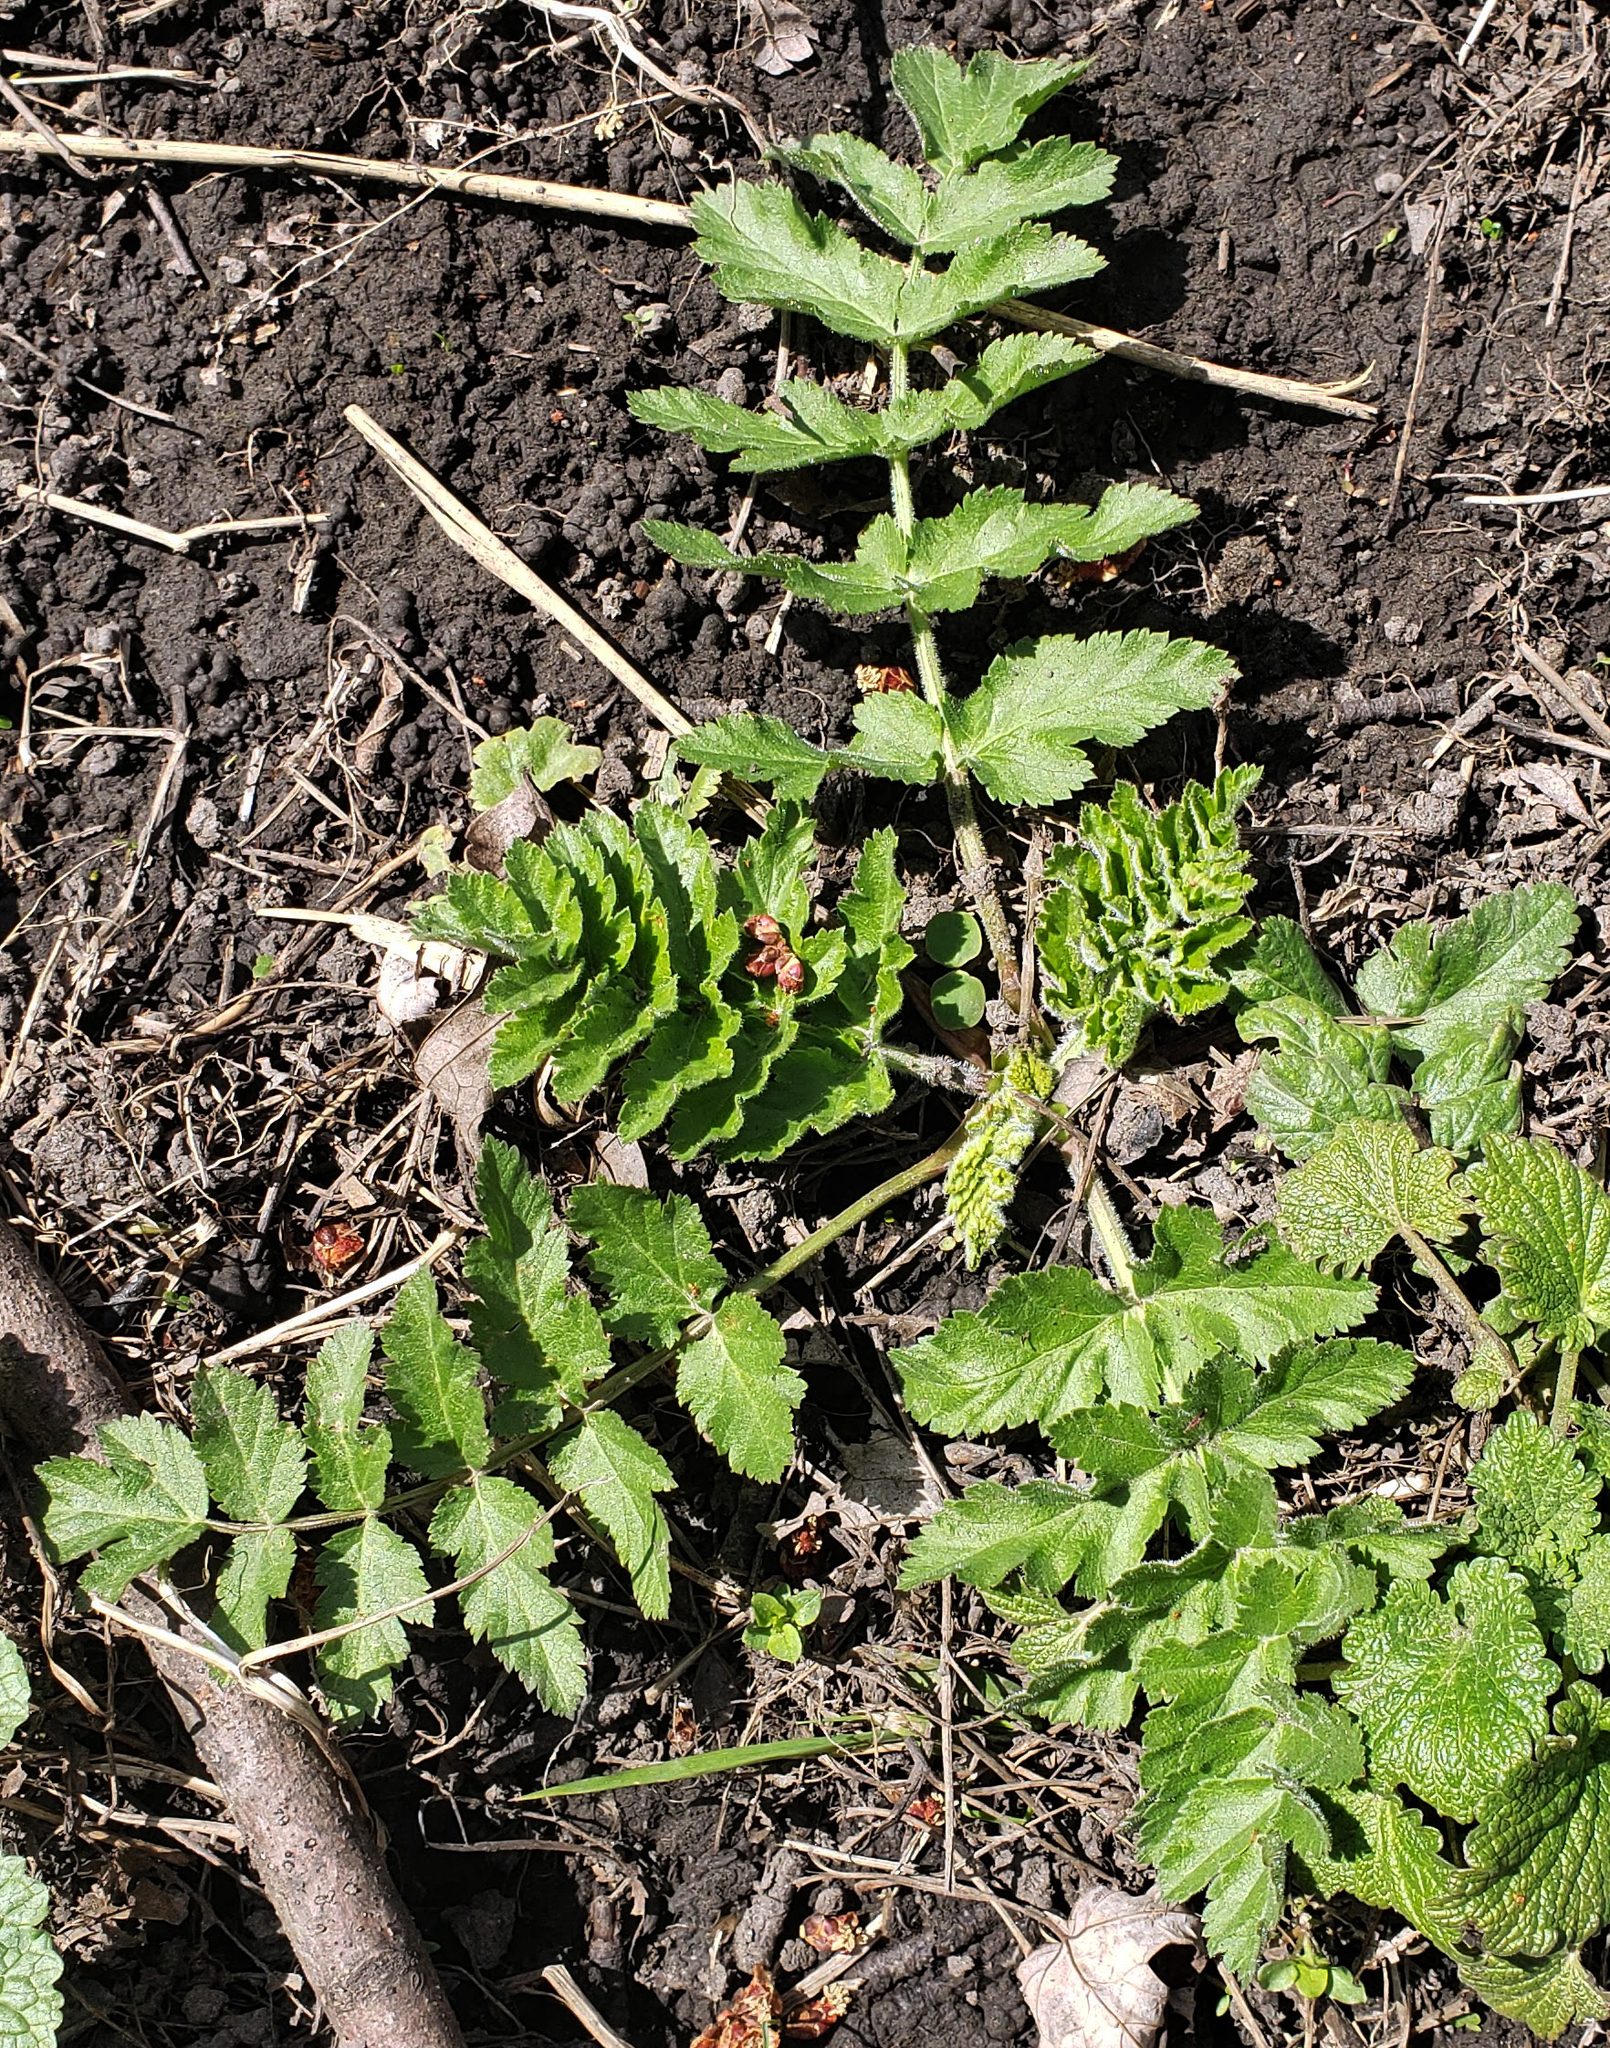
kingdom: Plantae
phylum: Tracheophyta
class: Magnoliopsida
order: Apiales
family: Apiaceae
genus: Pastinaca
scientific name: Pastinaca sativa
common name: Wild parsnip
